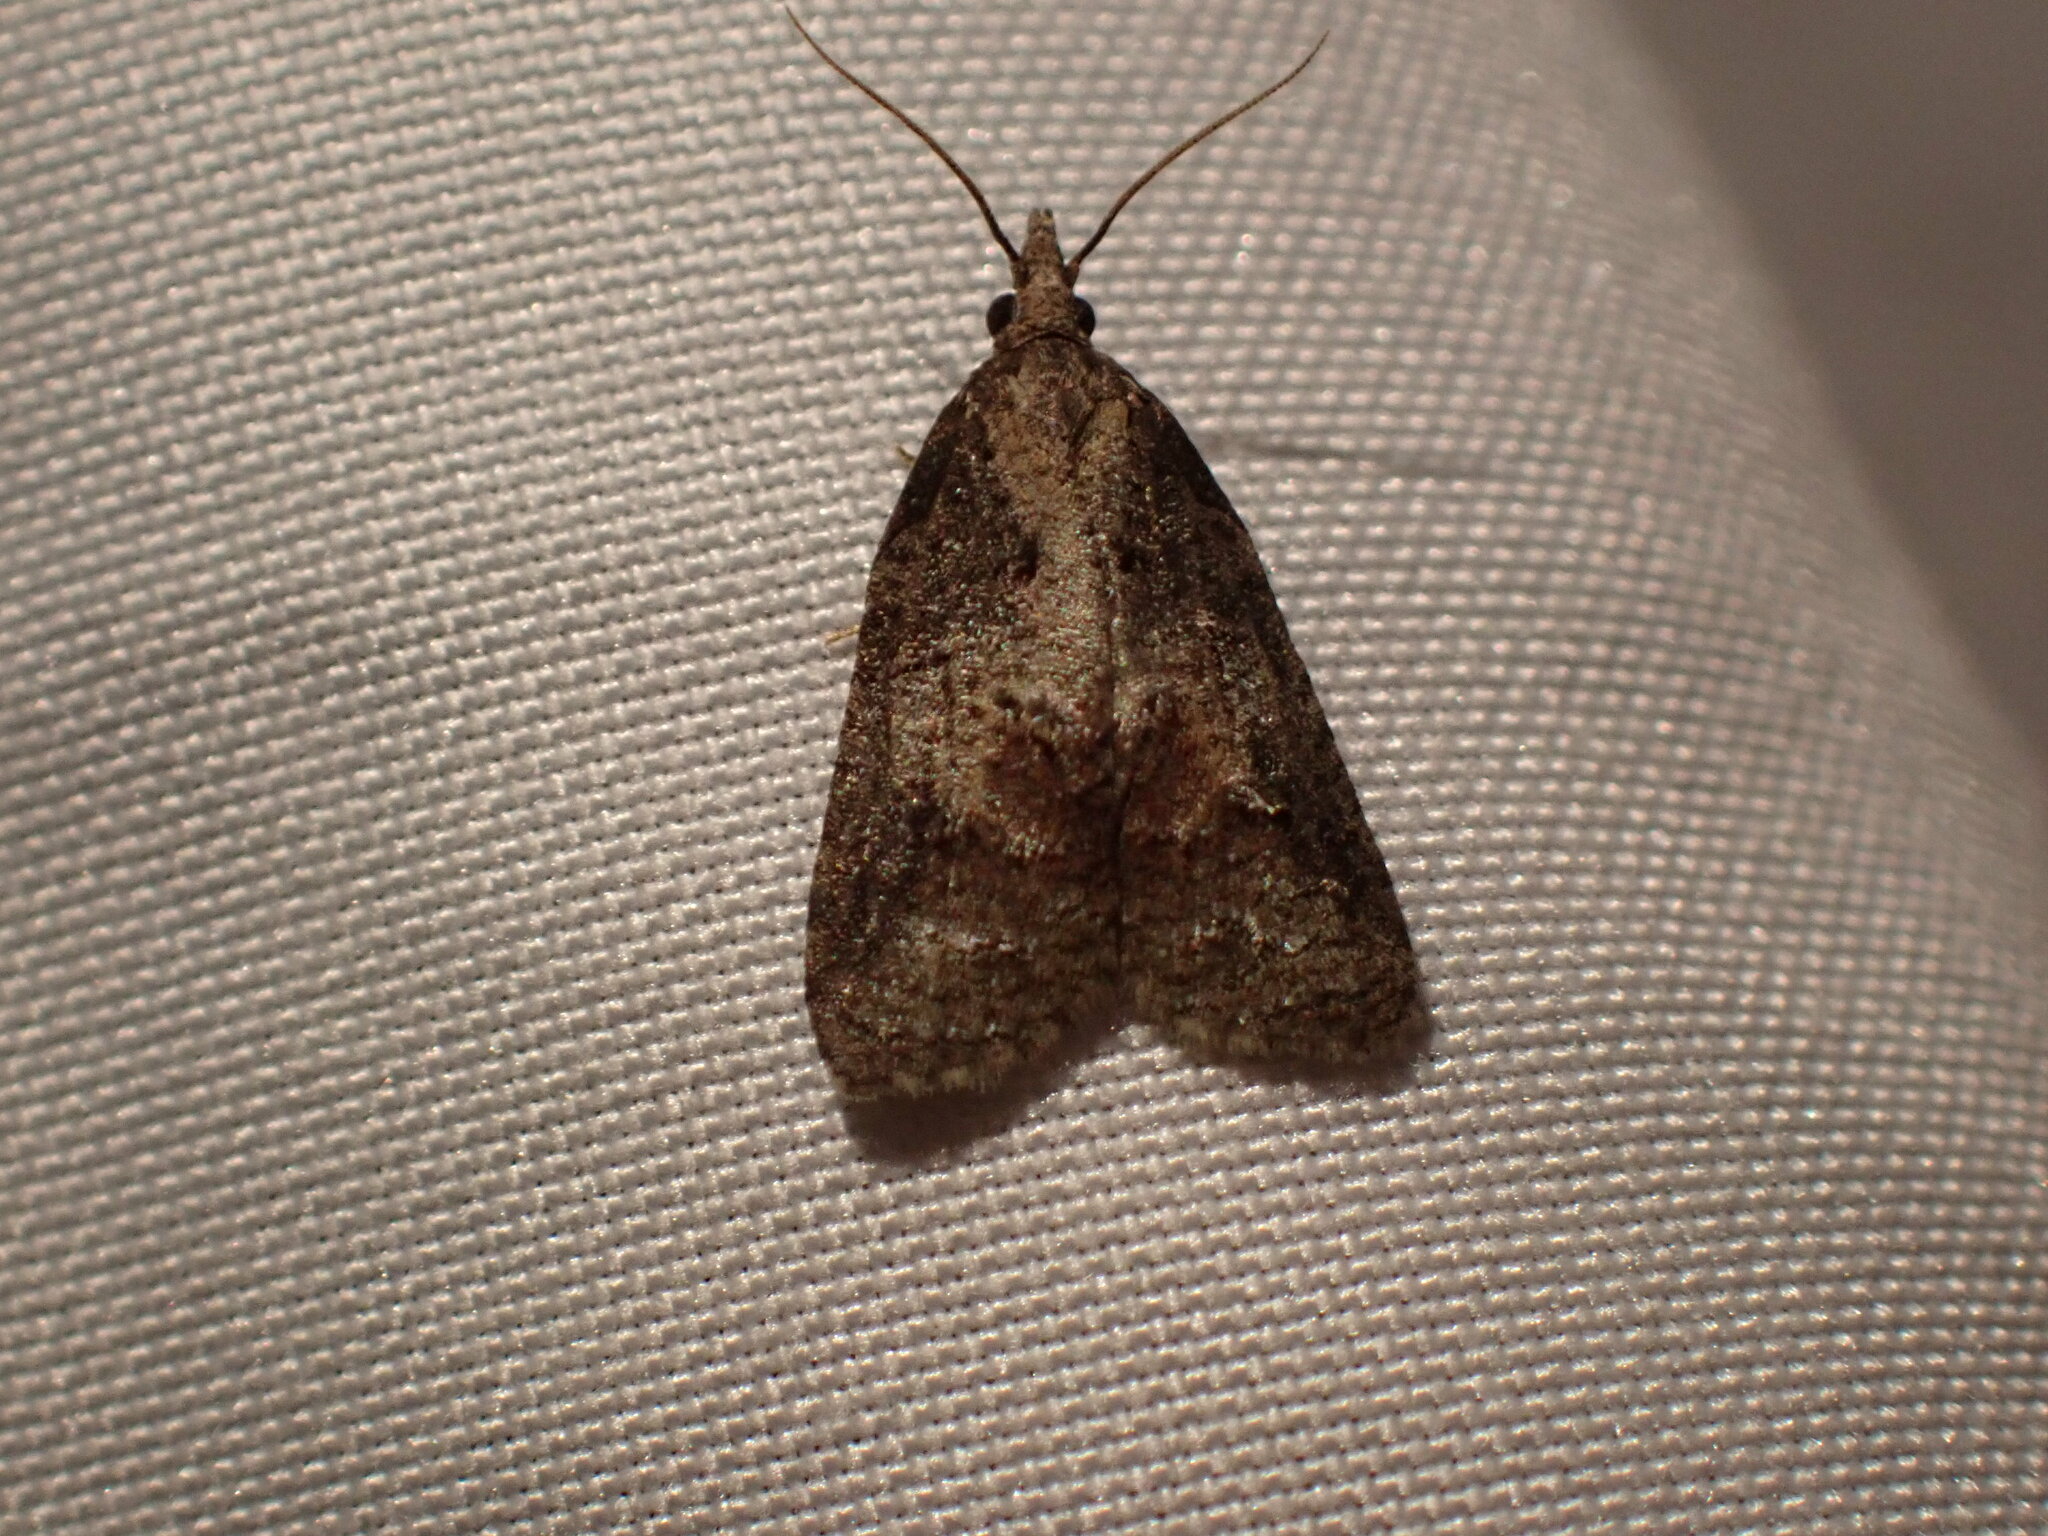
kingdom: Animalia
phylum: Arthropoda
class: Insecta
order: Lepidoptera
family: Tortricidae
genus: Platynota
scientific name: Platynota idaeusalis
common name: Tufted apple bud moth
